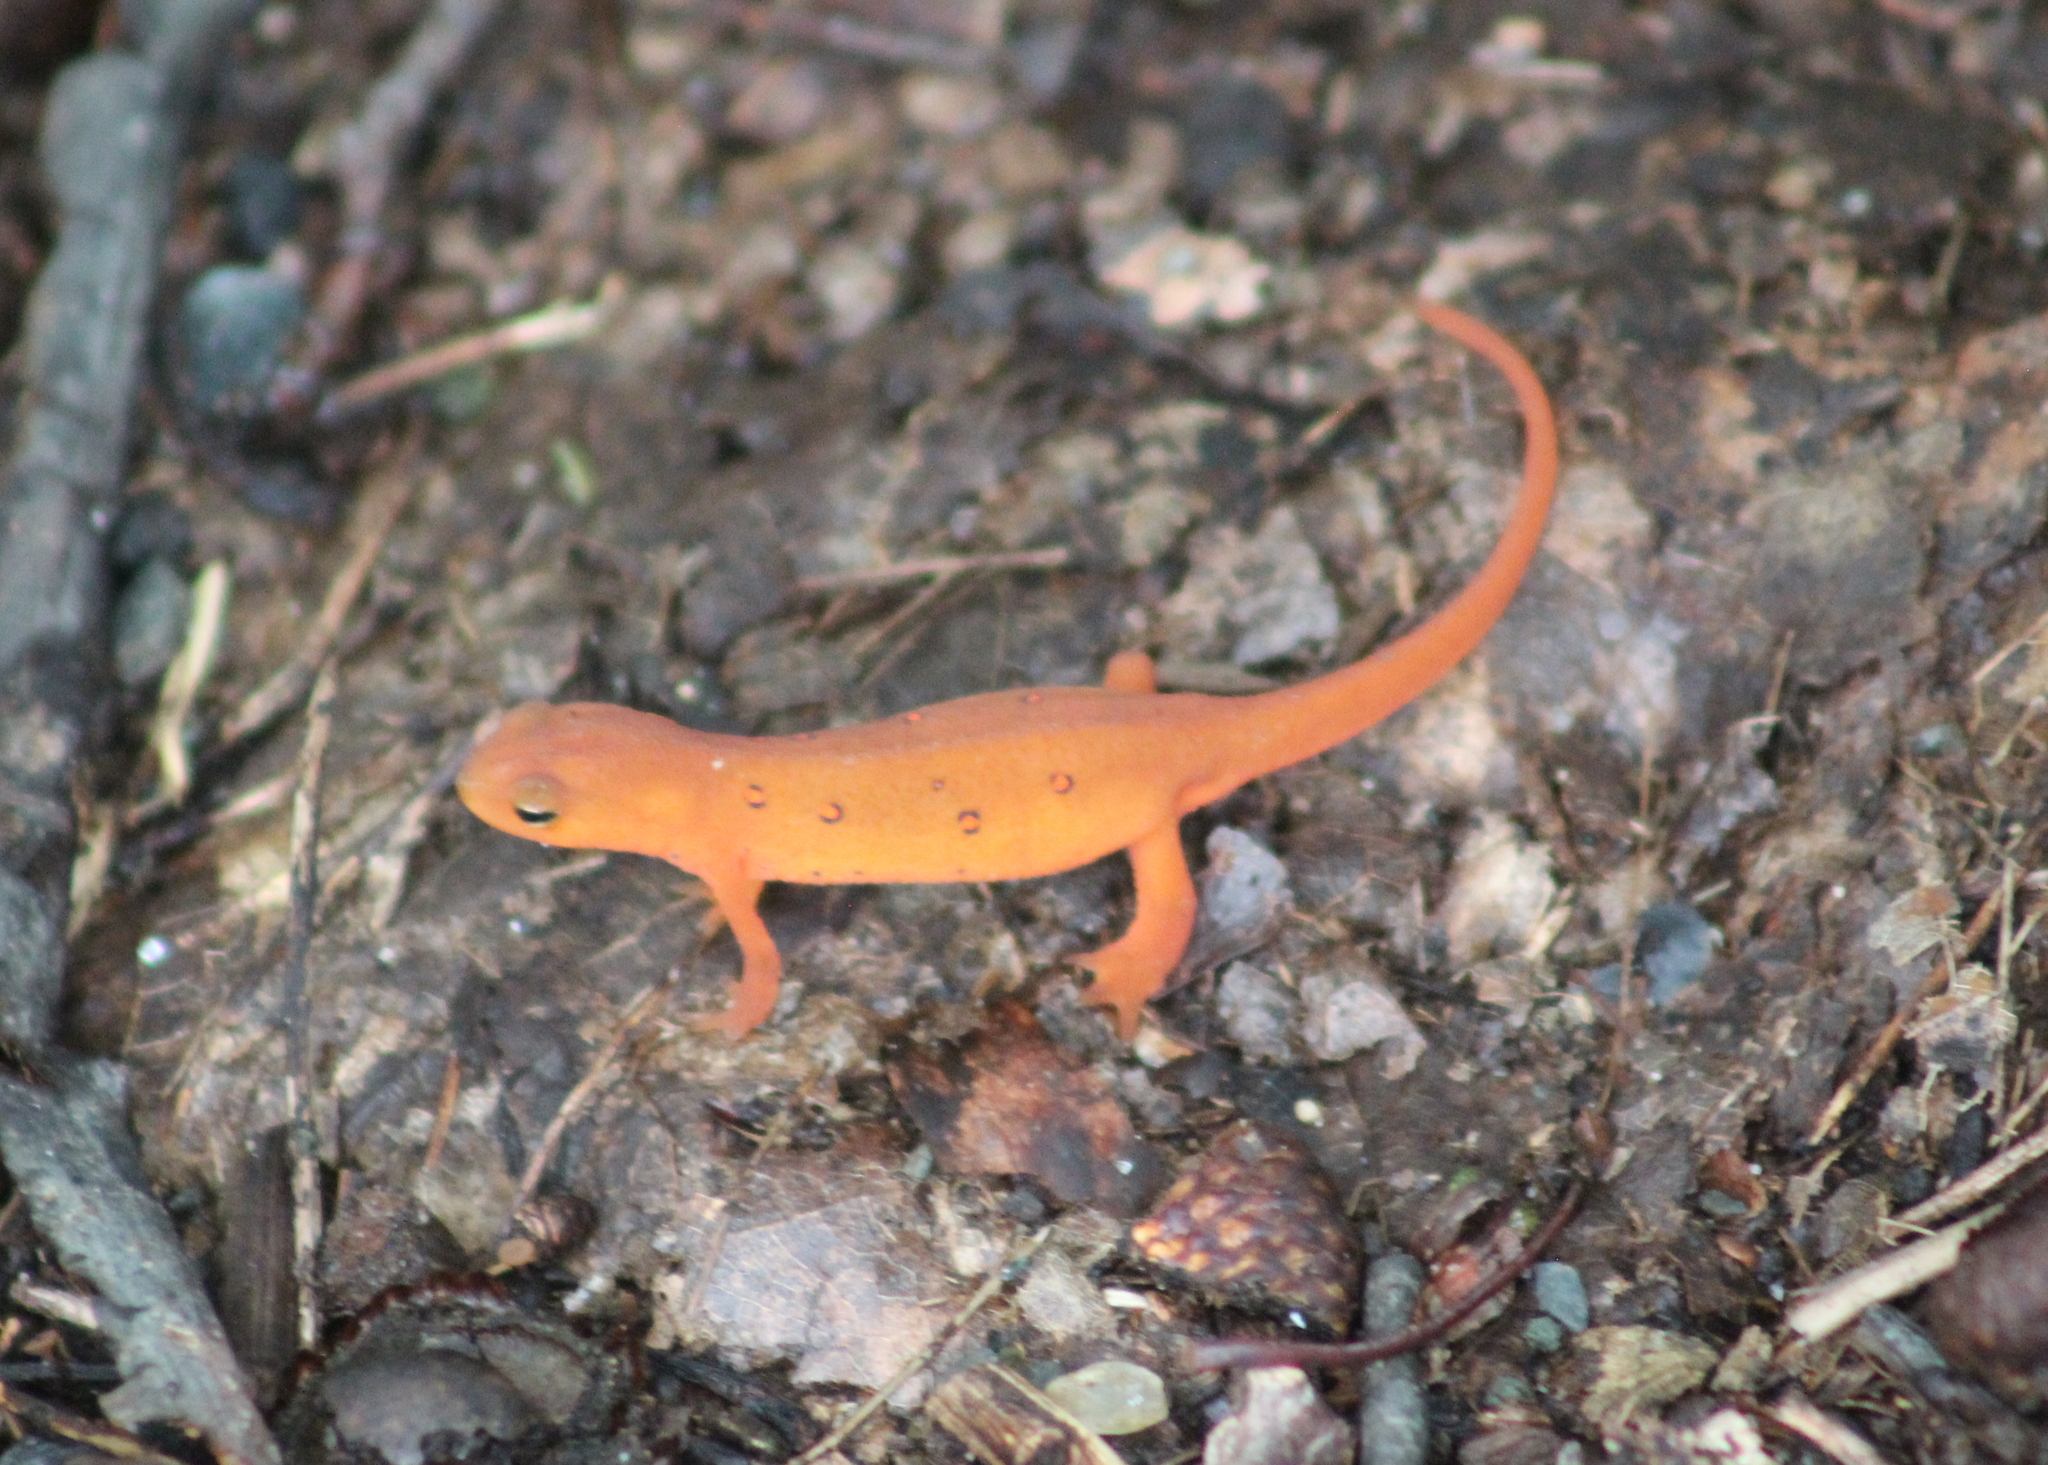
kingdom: Animalia
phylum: Chordata
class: Amphibia
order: Caudata
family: Salamandridae
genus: Notophthalmus
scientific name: Notophthalmus viridescens
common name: Eastern newt
